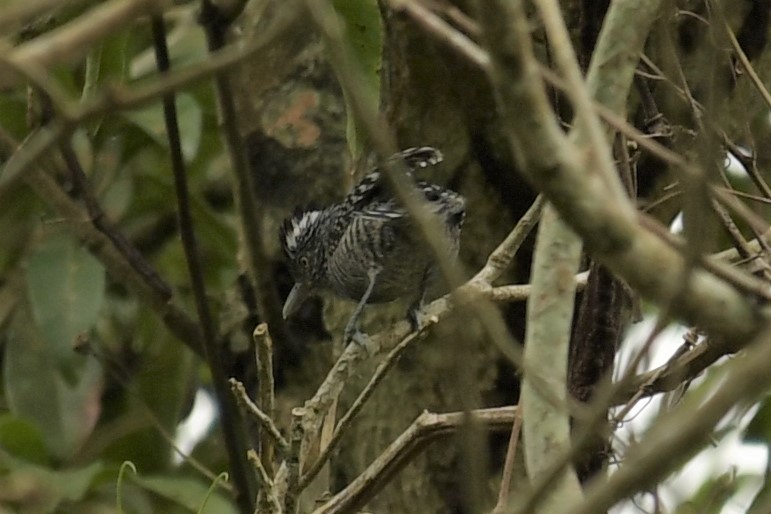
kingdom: Animalia
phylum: Chordata
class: Aves
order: Passeriformes
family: Thamnophilidae
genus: Thamnophilus
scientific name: Thamnophilus doliatus
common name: Barred antshrike
